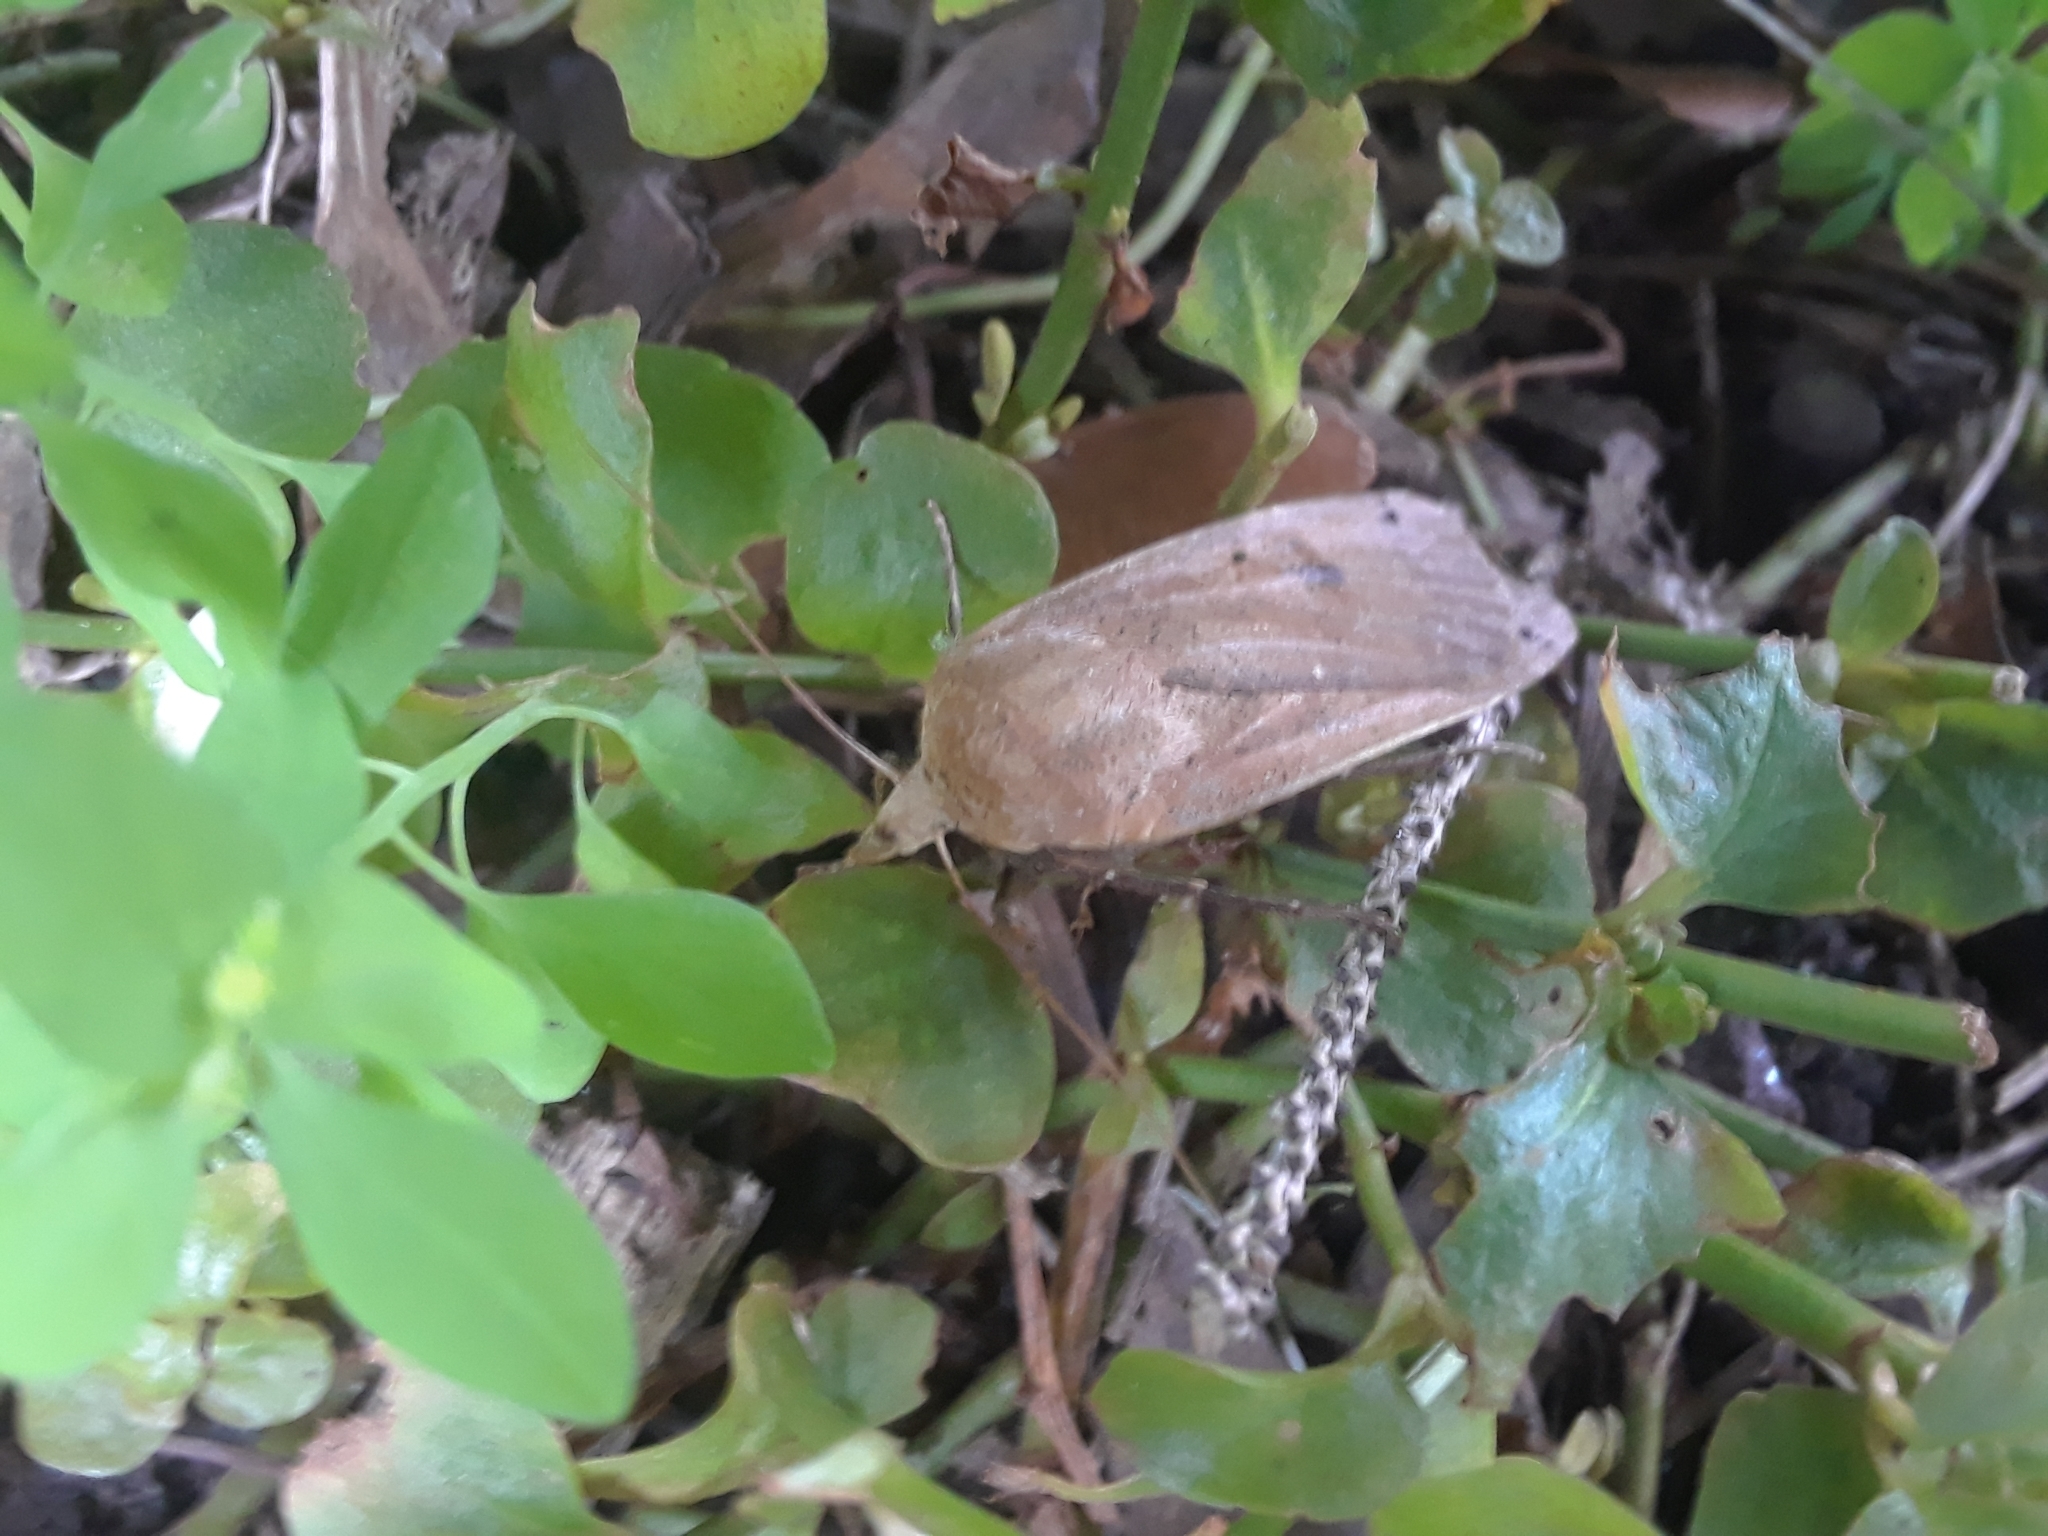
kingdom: Animalia
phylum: Arthropoda
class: Insecta
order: Lepidoptera
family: Noctuidae
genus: Noctua
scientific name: Noctua pronuba
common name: Large yellow underwing
